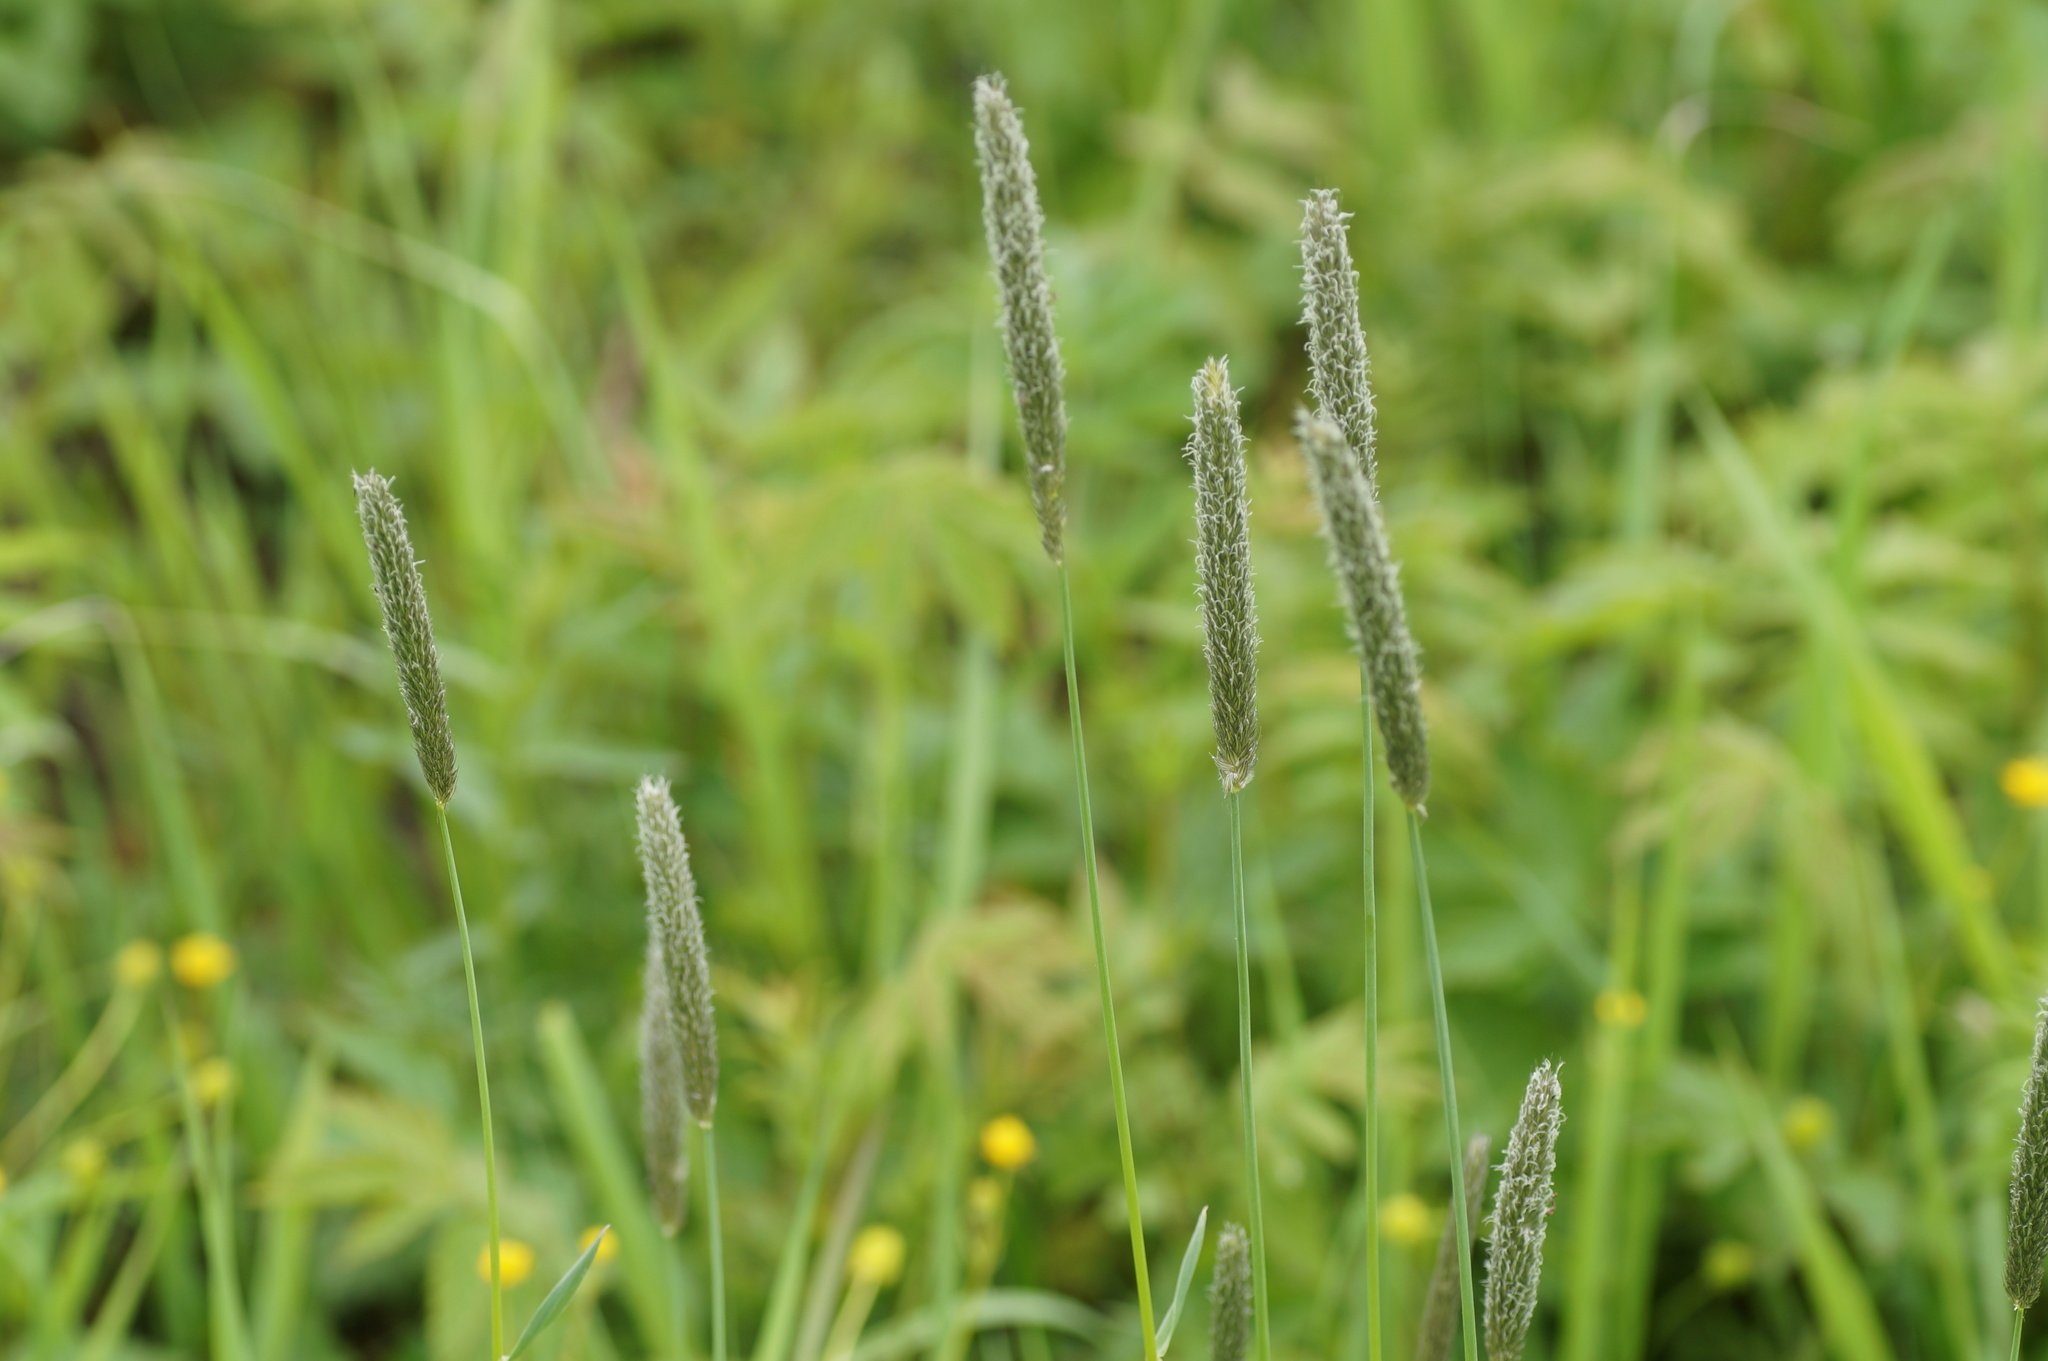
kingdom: Plantae
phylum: Tracheophyta
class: Liliopsida
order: Poales
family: Poaceae
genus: Alopecurus
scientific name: Alopecurus pratensis
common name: Meadow foxtail
